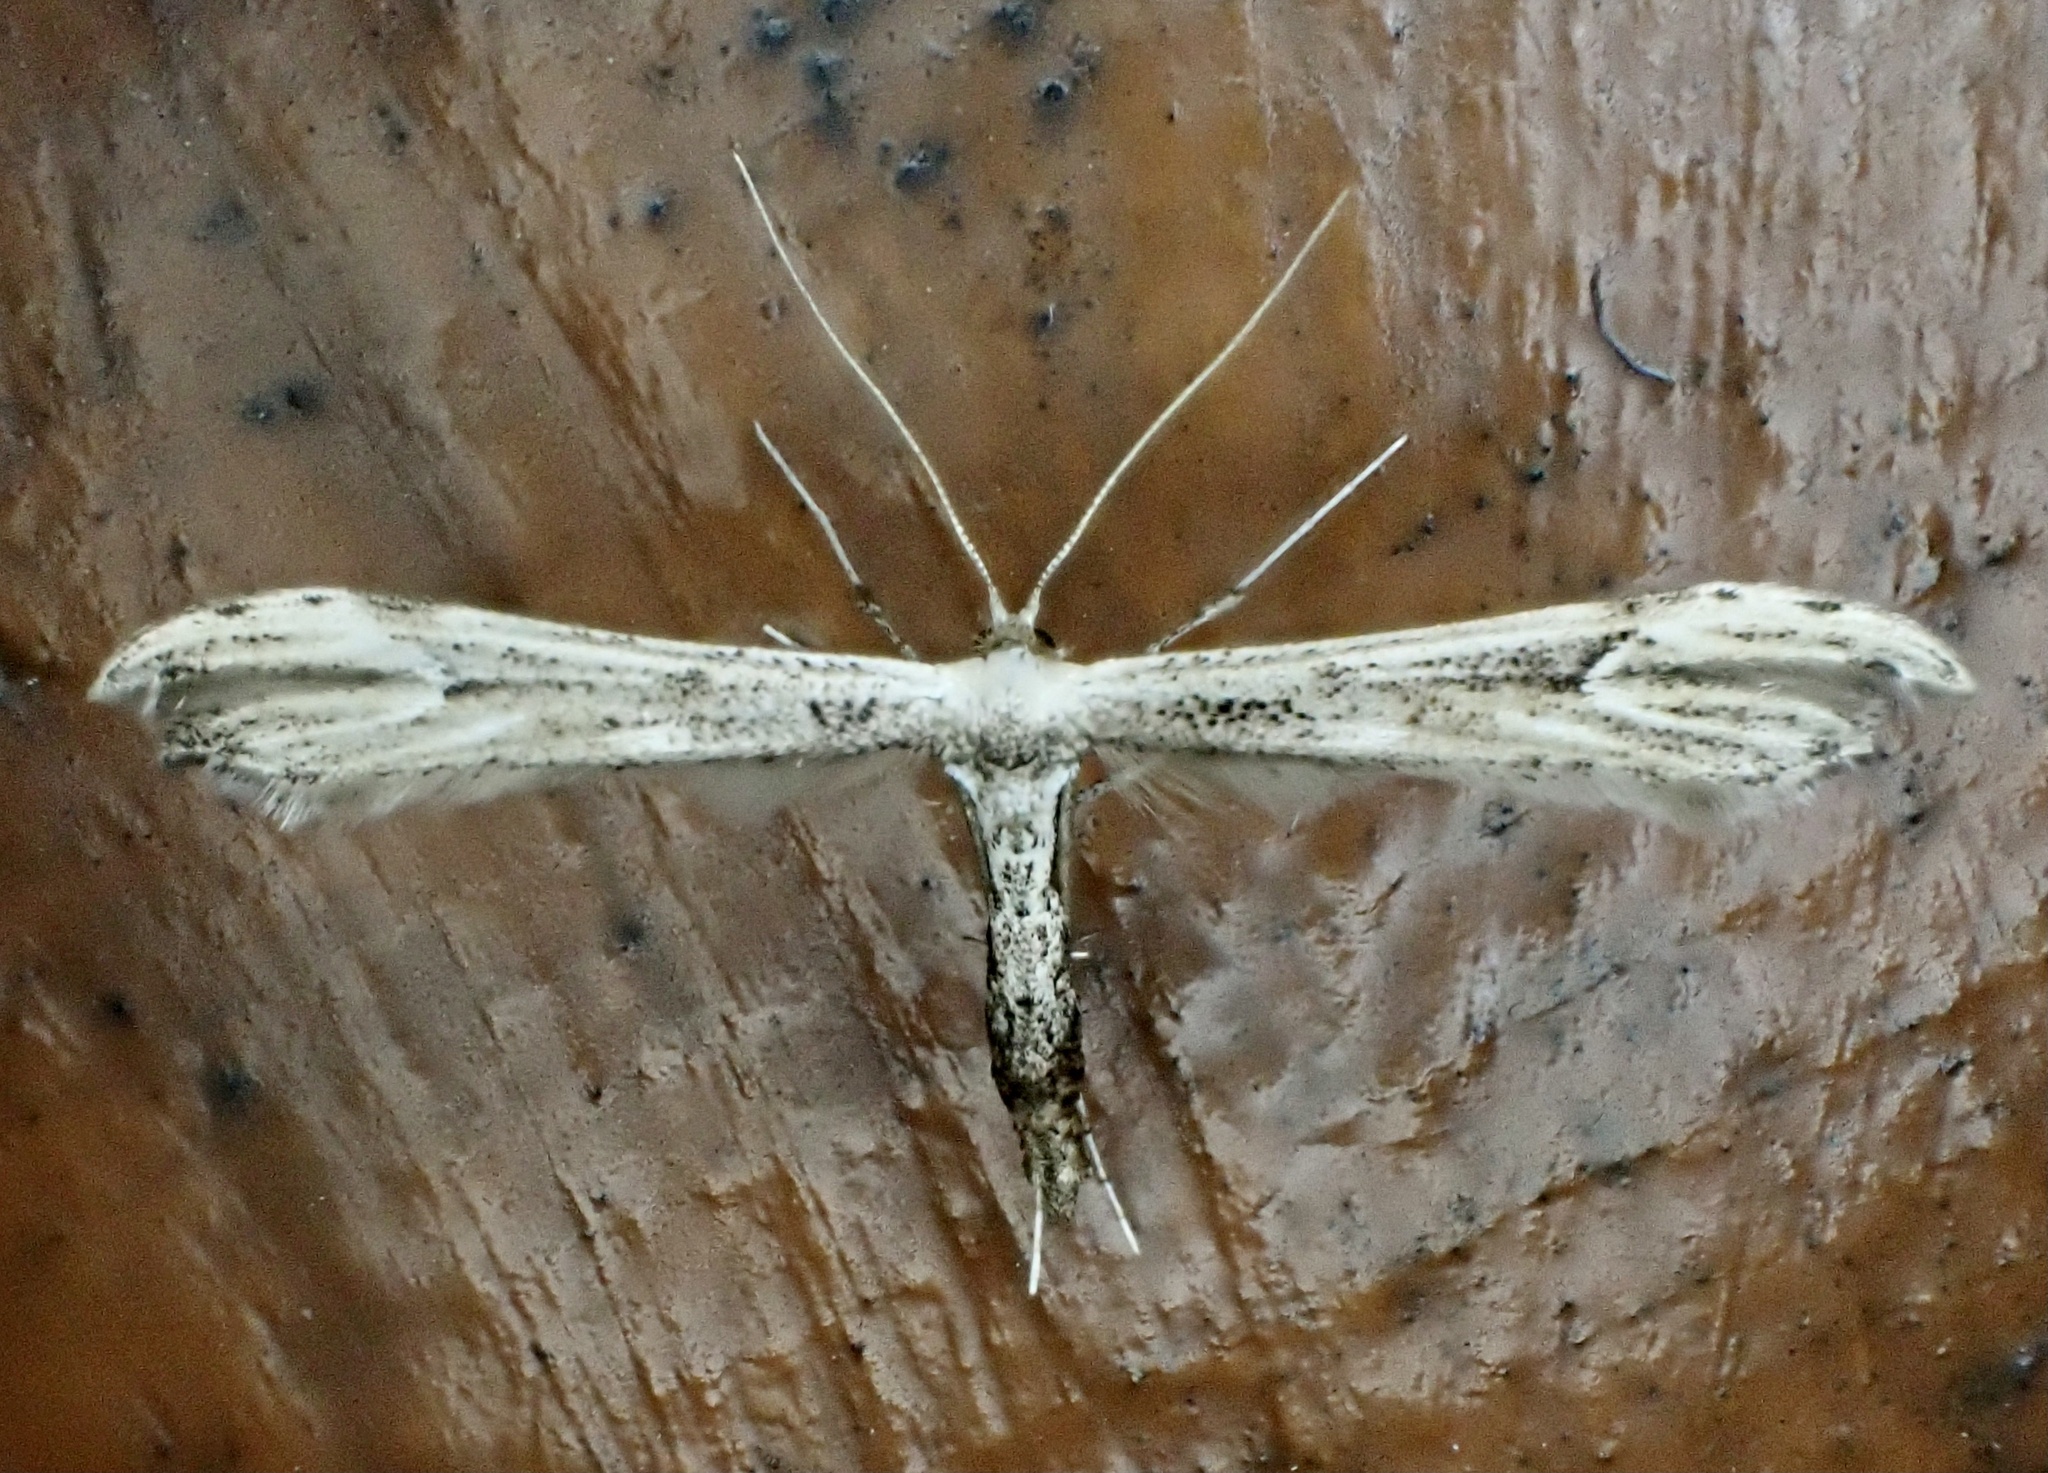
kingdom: Animalia
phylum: Arthropoda
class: Insecta
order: Lepidoptera
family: Pterophoridae
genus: Oidaematophorus
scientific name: Oidaematophorus eupatorii
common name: Eupatorium plume moth
